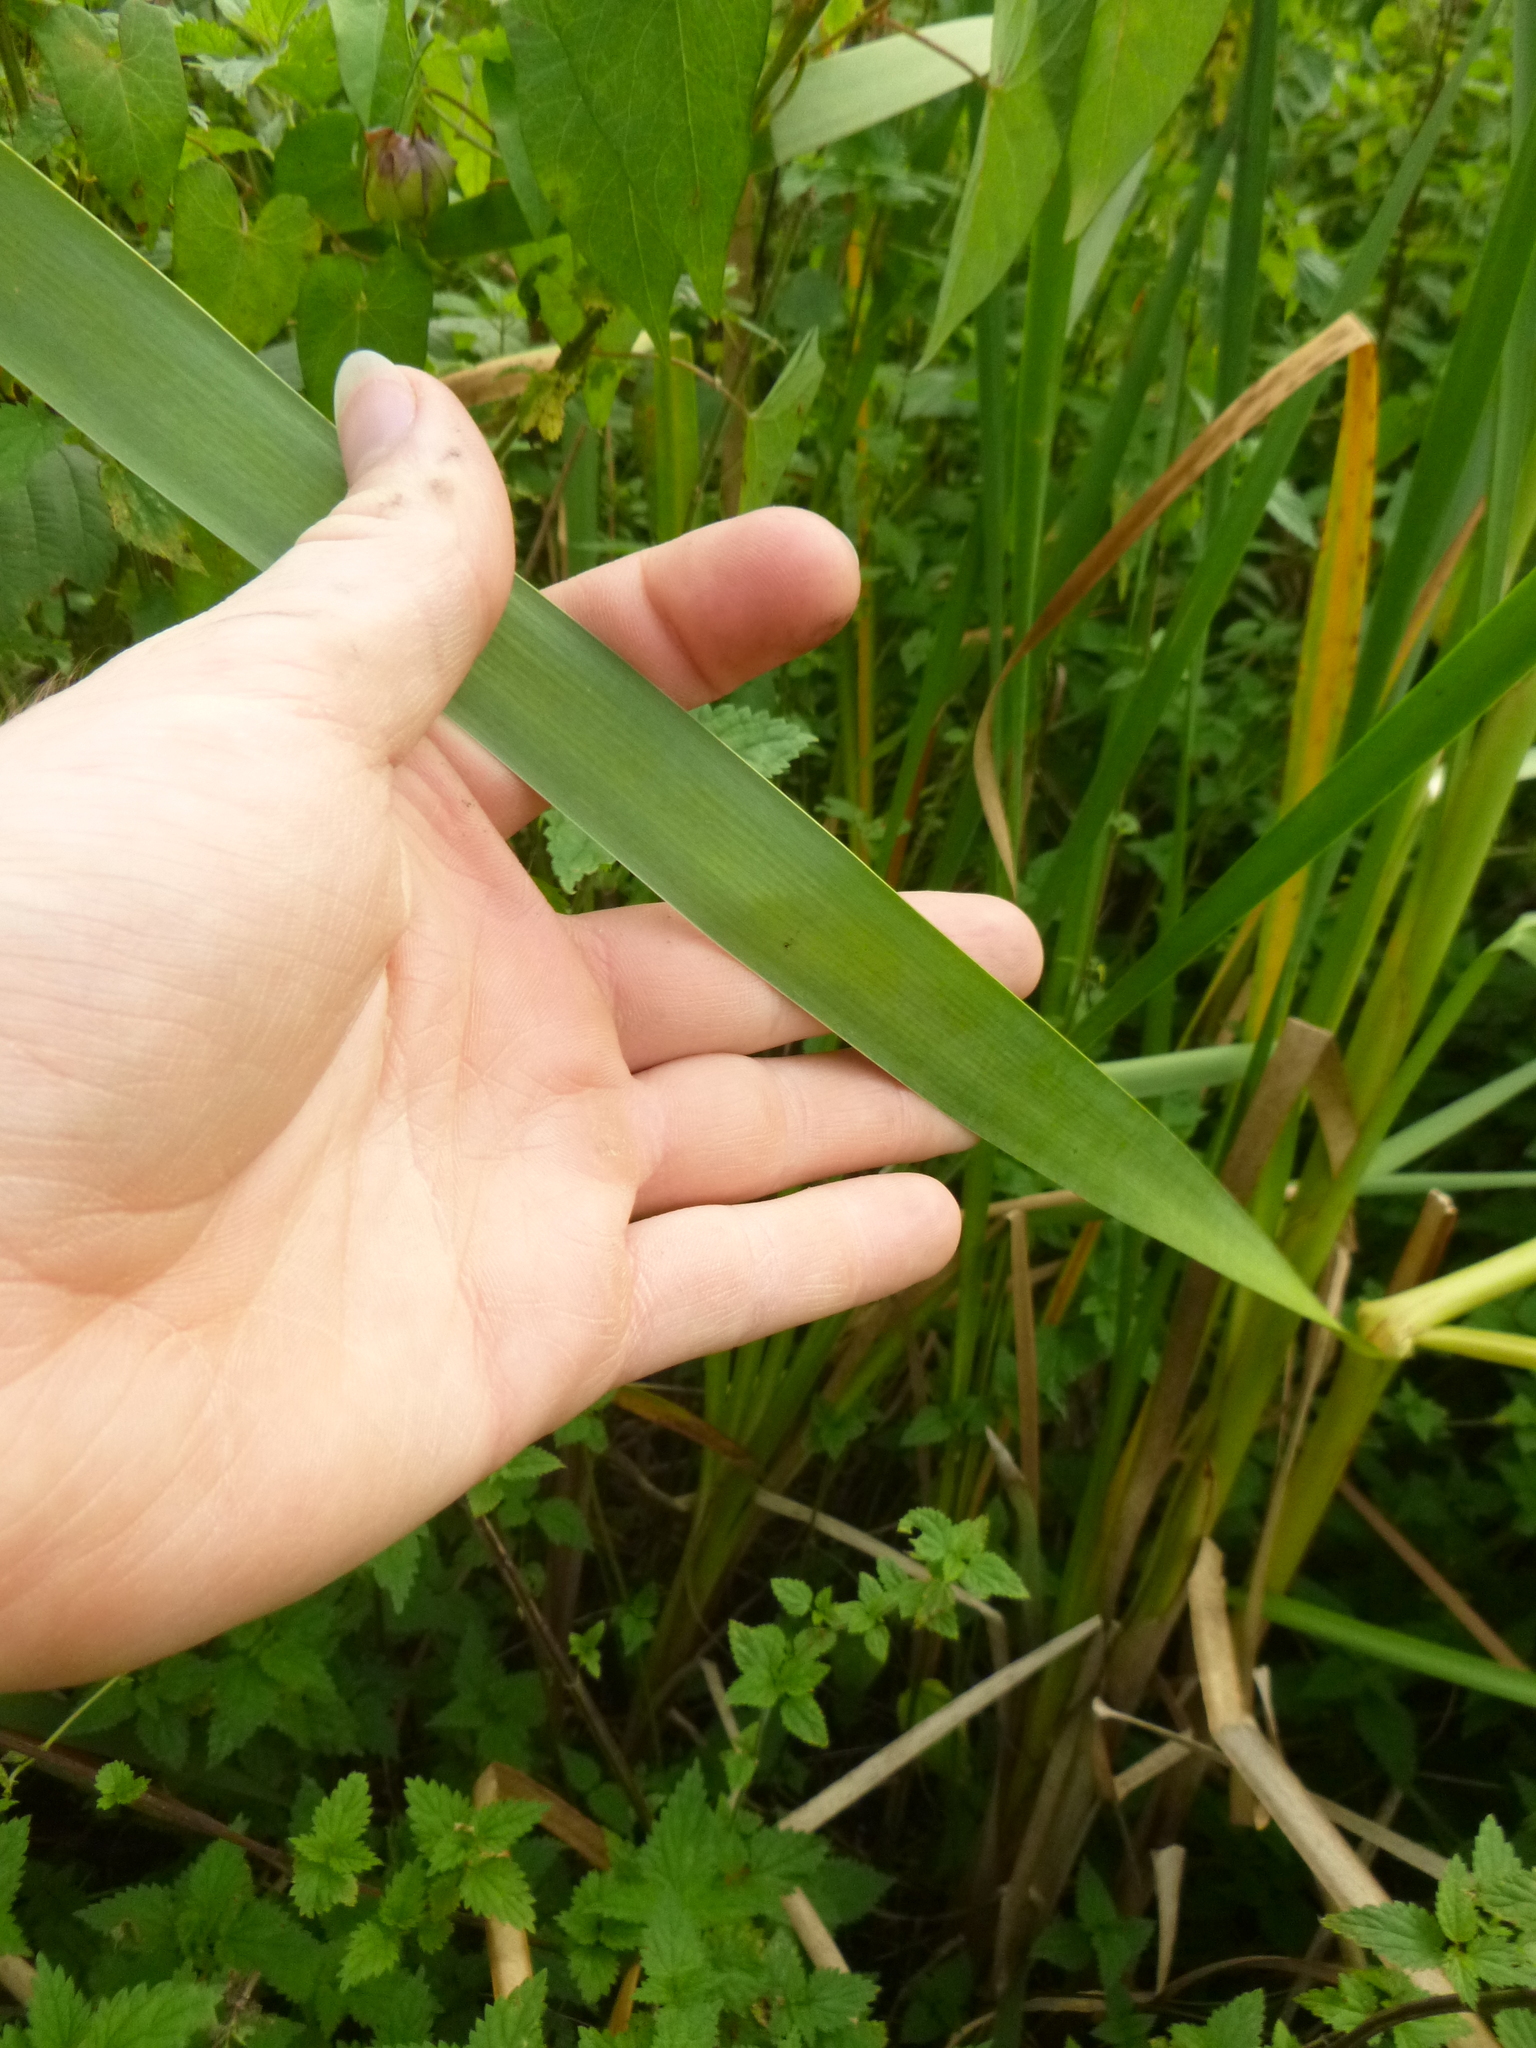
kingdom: Plantae
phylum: Tracheophyta
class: Liliopsida
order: Poales
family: Typhaceae
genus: Typha
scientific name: Typha latifolia
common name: Broadleaf cattail
